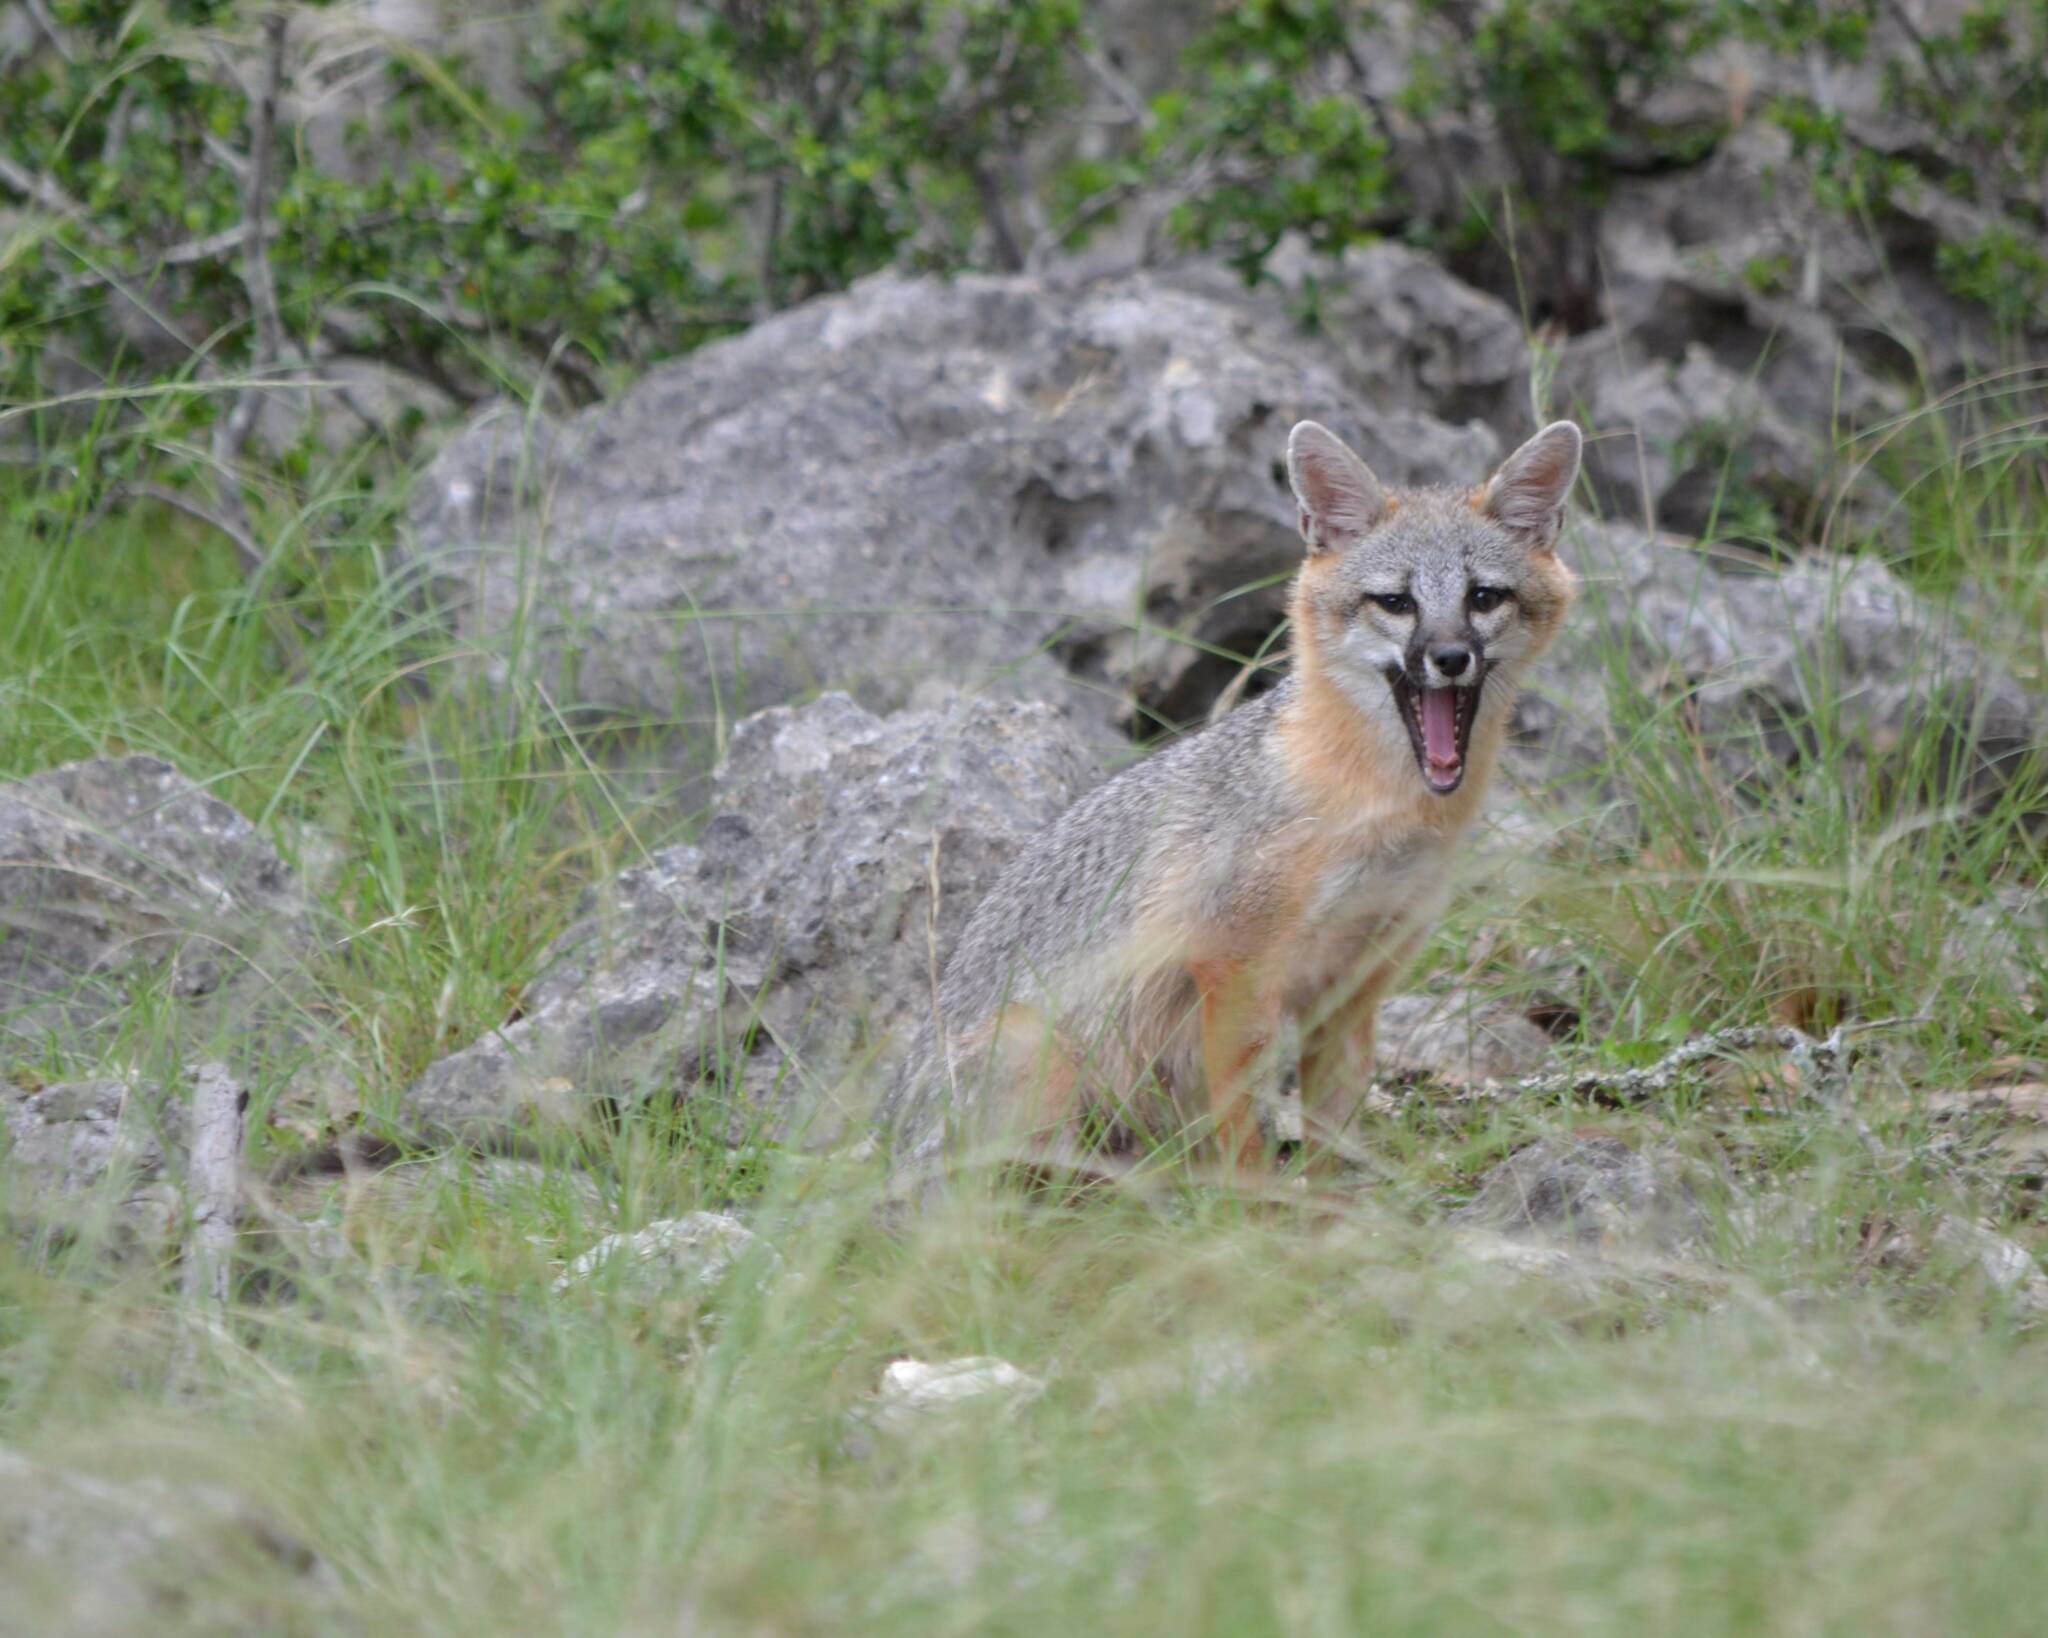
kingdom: Animalia
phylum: Chordata
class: Mammalia
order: Carnivora
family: Canidae
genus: Urocyon
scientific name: Urocyon cinereoargenteus
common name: Gray fox
